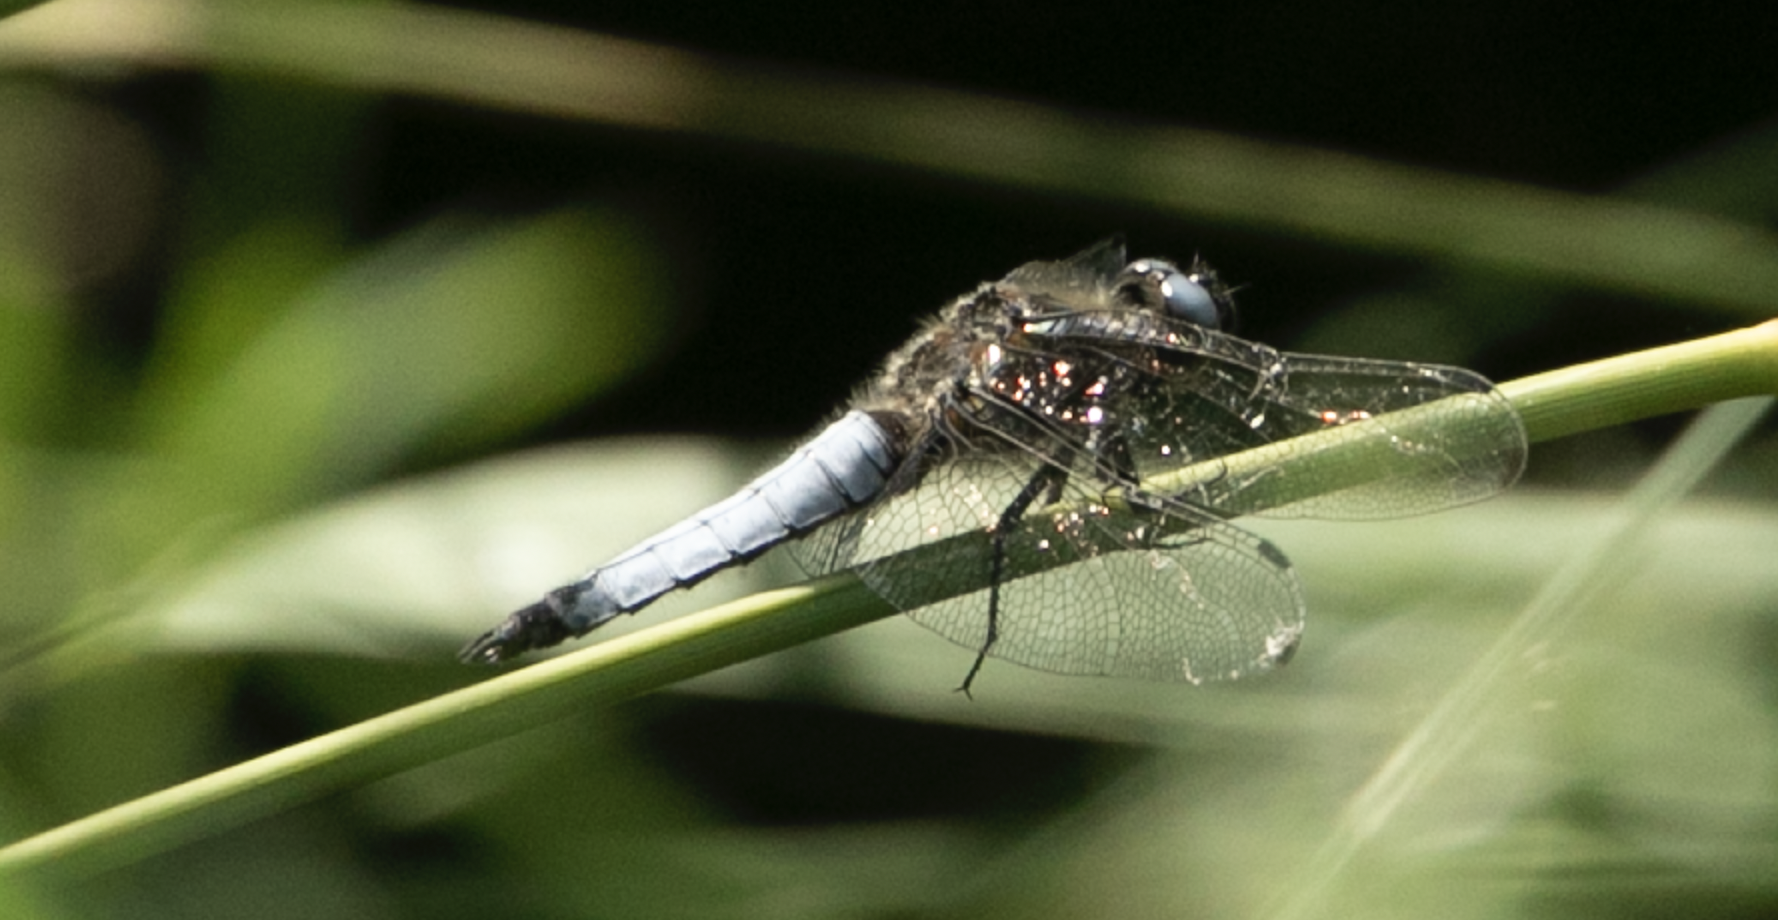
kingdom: Animalia
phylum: Arthropoda
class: Insecta
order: Odonata
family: Libellulidae
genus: Libellula
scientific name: Libellula fulva
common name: Blue chaser
